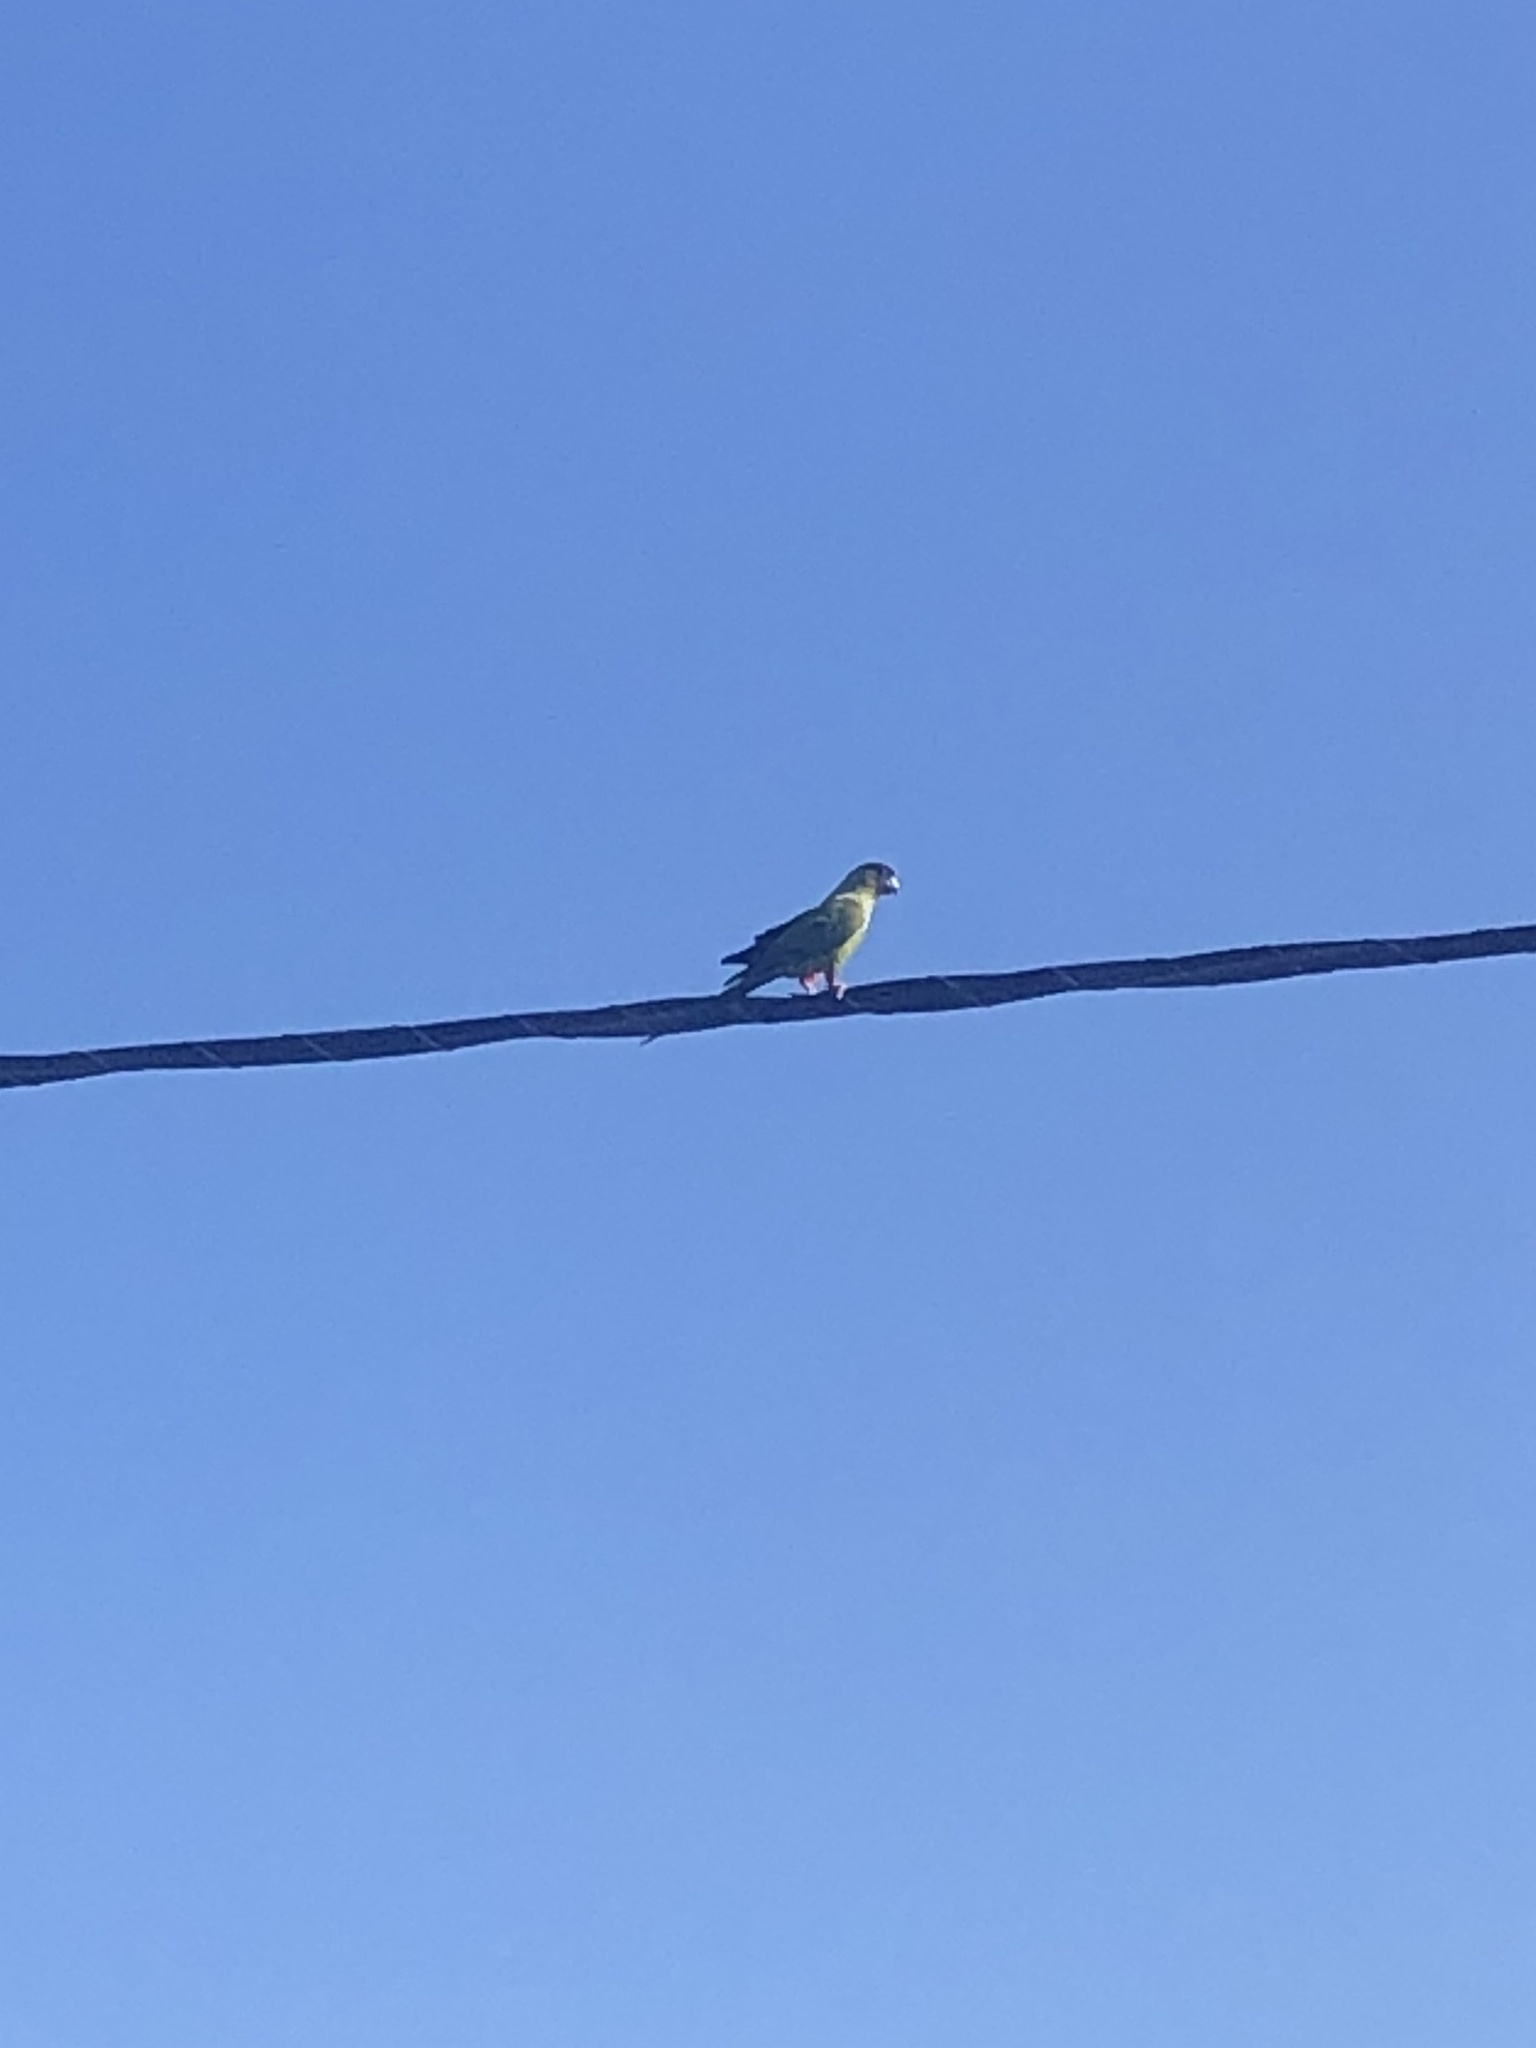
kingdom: Animalia
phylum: Chordata
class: Aves
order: Psittaciformes
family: Psittacidae
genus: Nandayus
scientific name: Nandayus nenday
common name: Nanday parakeet
